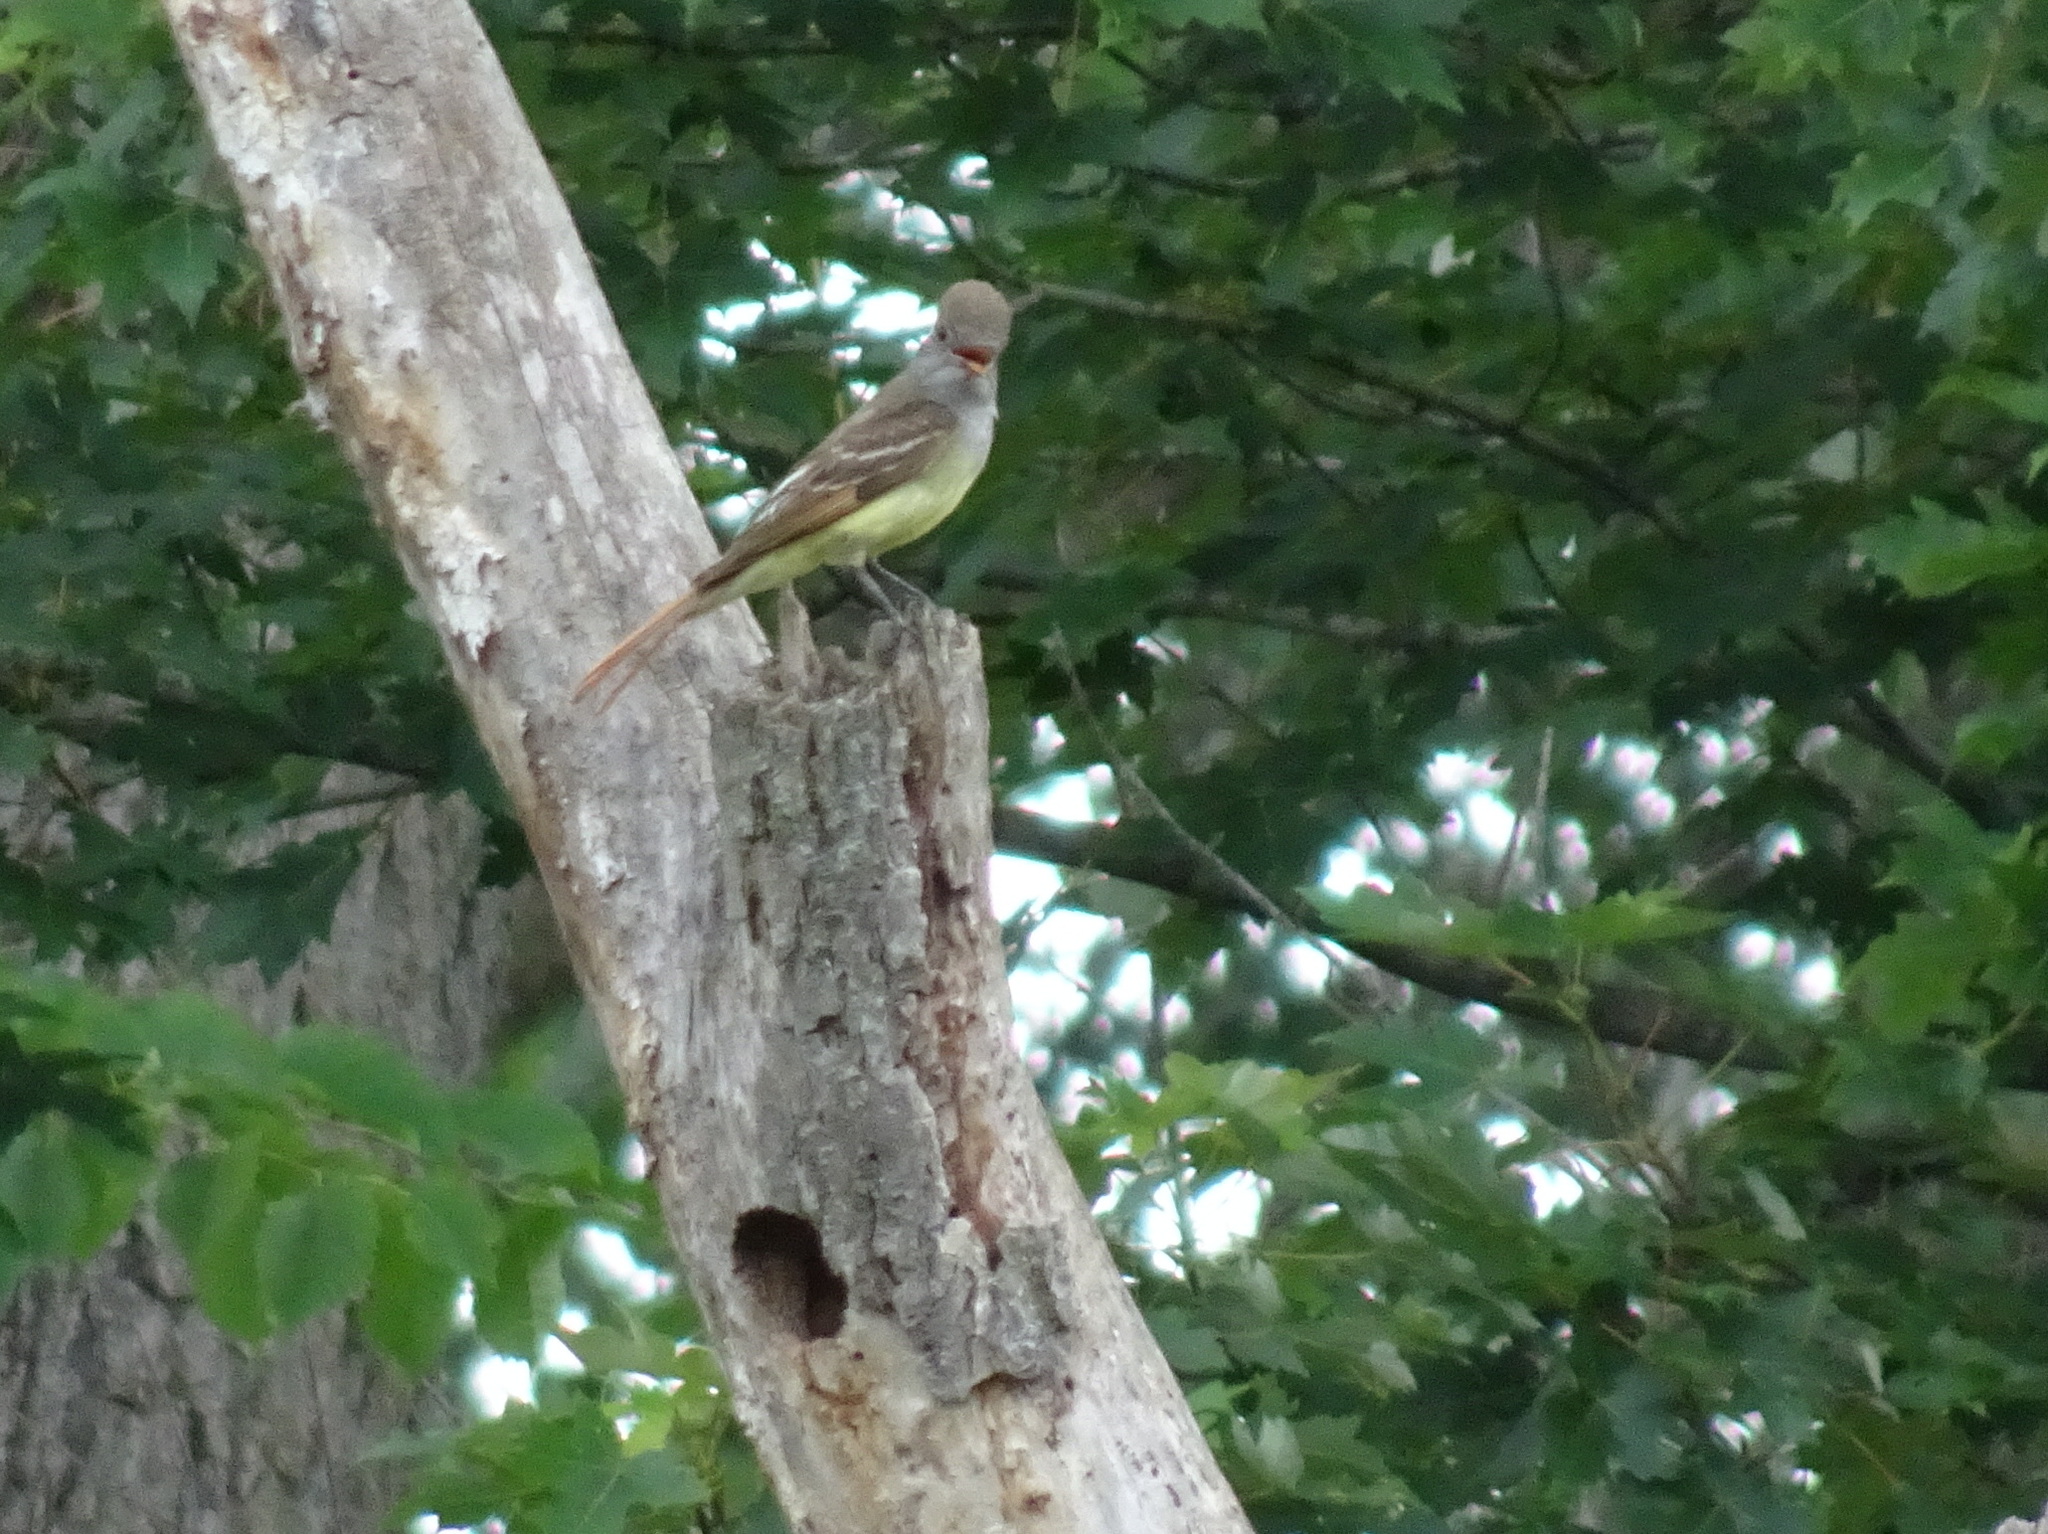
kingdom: Animalia
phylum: Chordata
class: Aves
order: Passeriformes
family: Tyrannidae
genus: Myiarchus
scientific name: Myiarchus crinitus
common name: Great crested flycatcher
